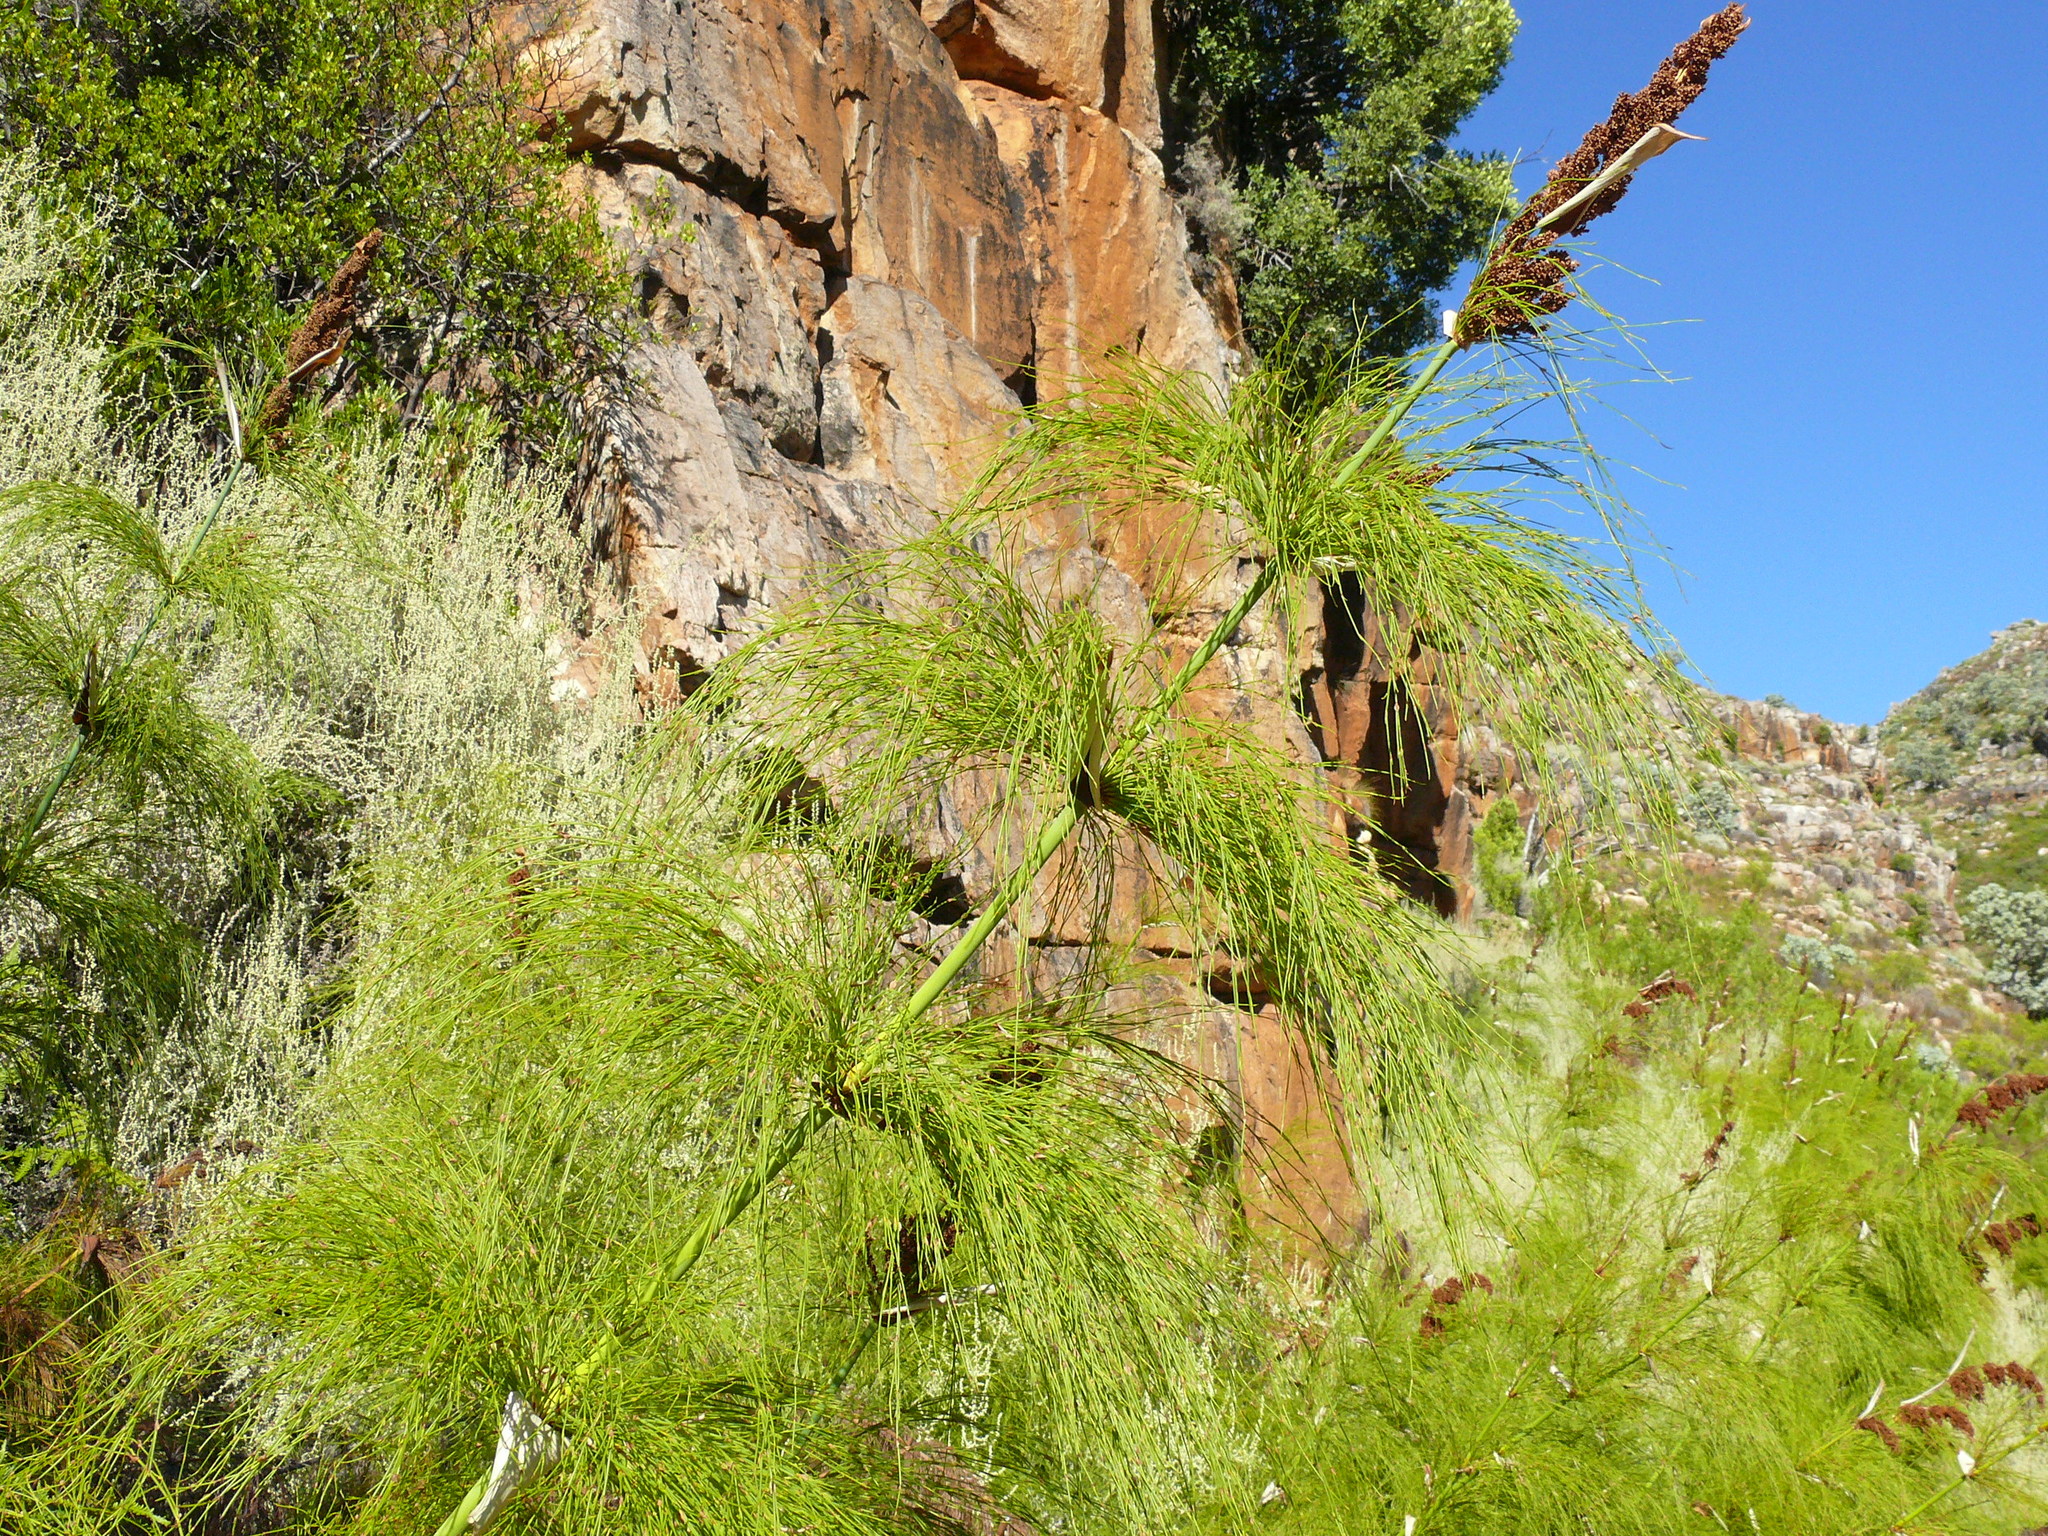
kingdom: Plantae
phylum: Tracheophyta
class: Liliopsida
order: Poales
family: Restionaceae
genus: Elegia
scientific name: Elegia capensis
